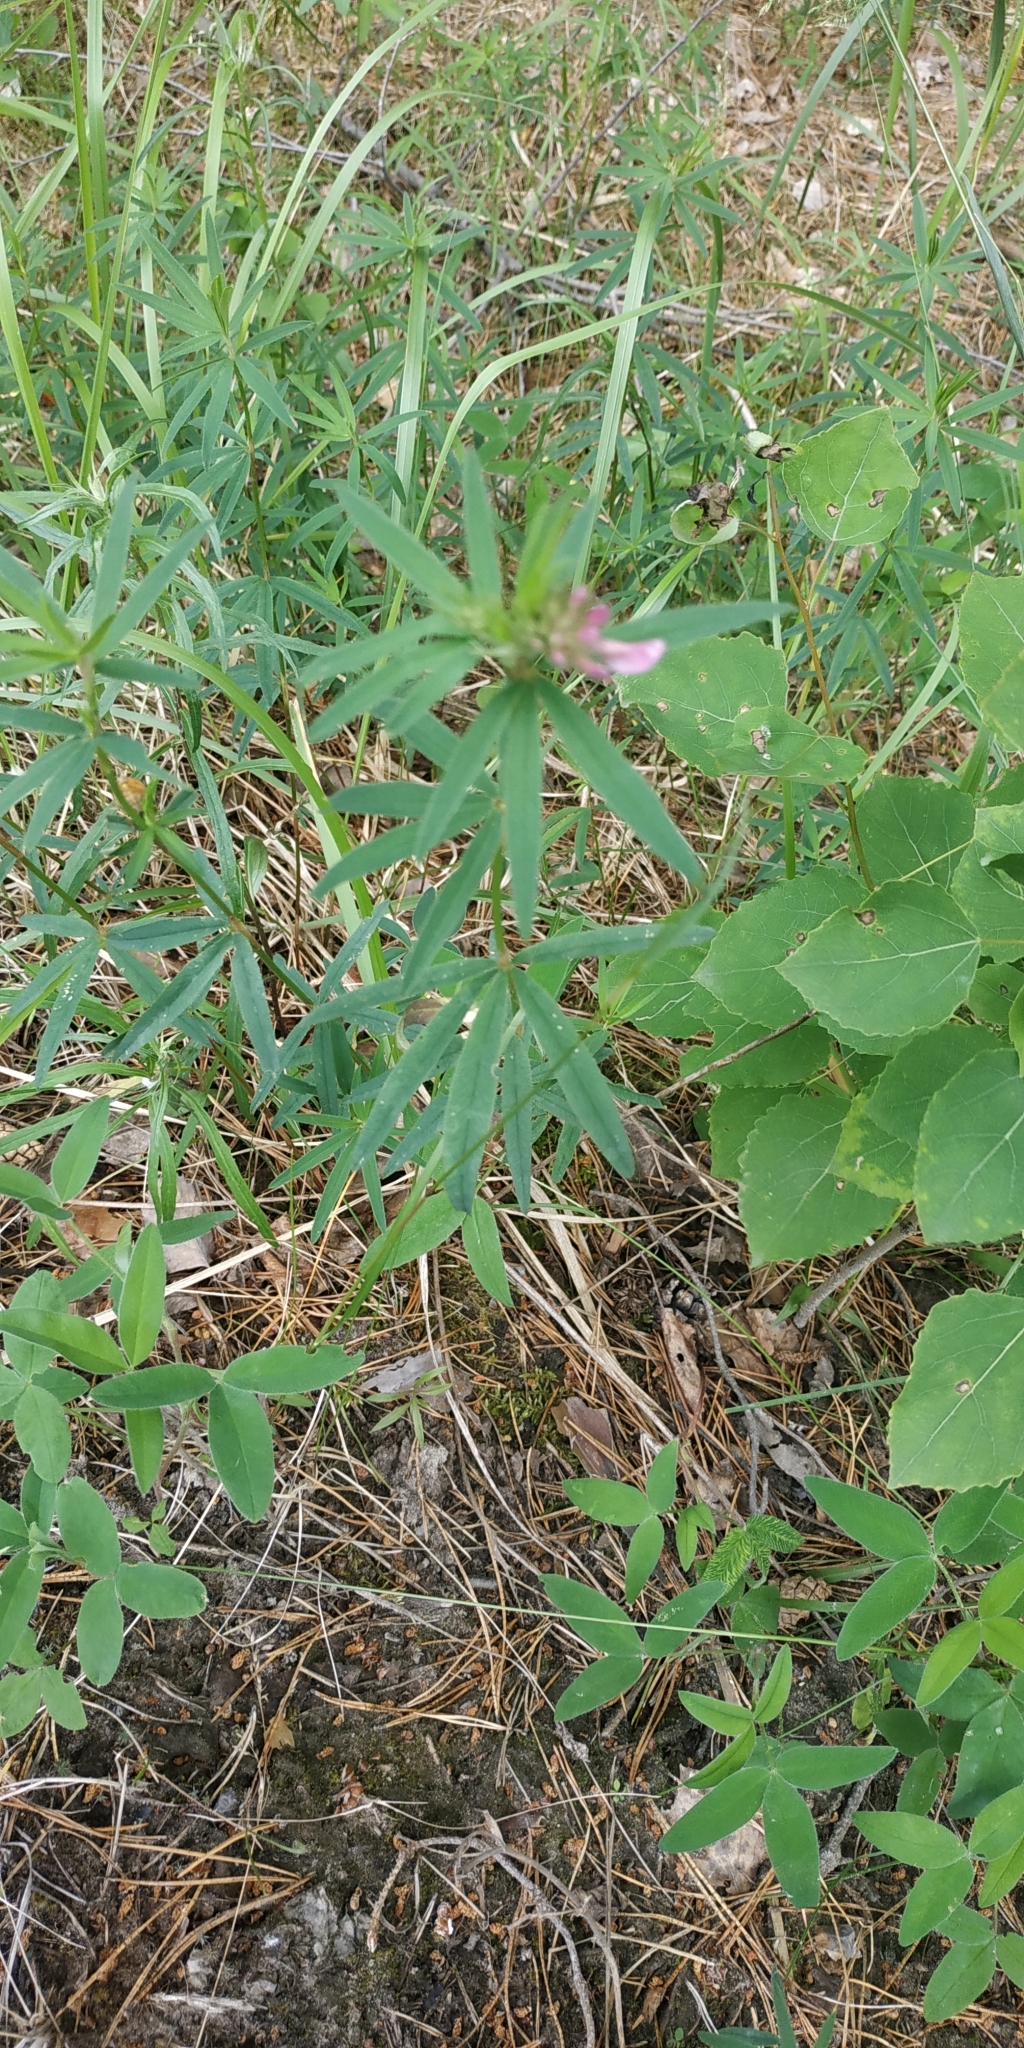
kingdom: Plantae
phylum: Tracheophyta
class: Magnoliopsida
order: Fabales
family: Fabaceae
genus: Trifolium
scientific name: Trifolium lupinaster
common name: Lupine clover
